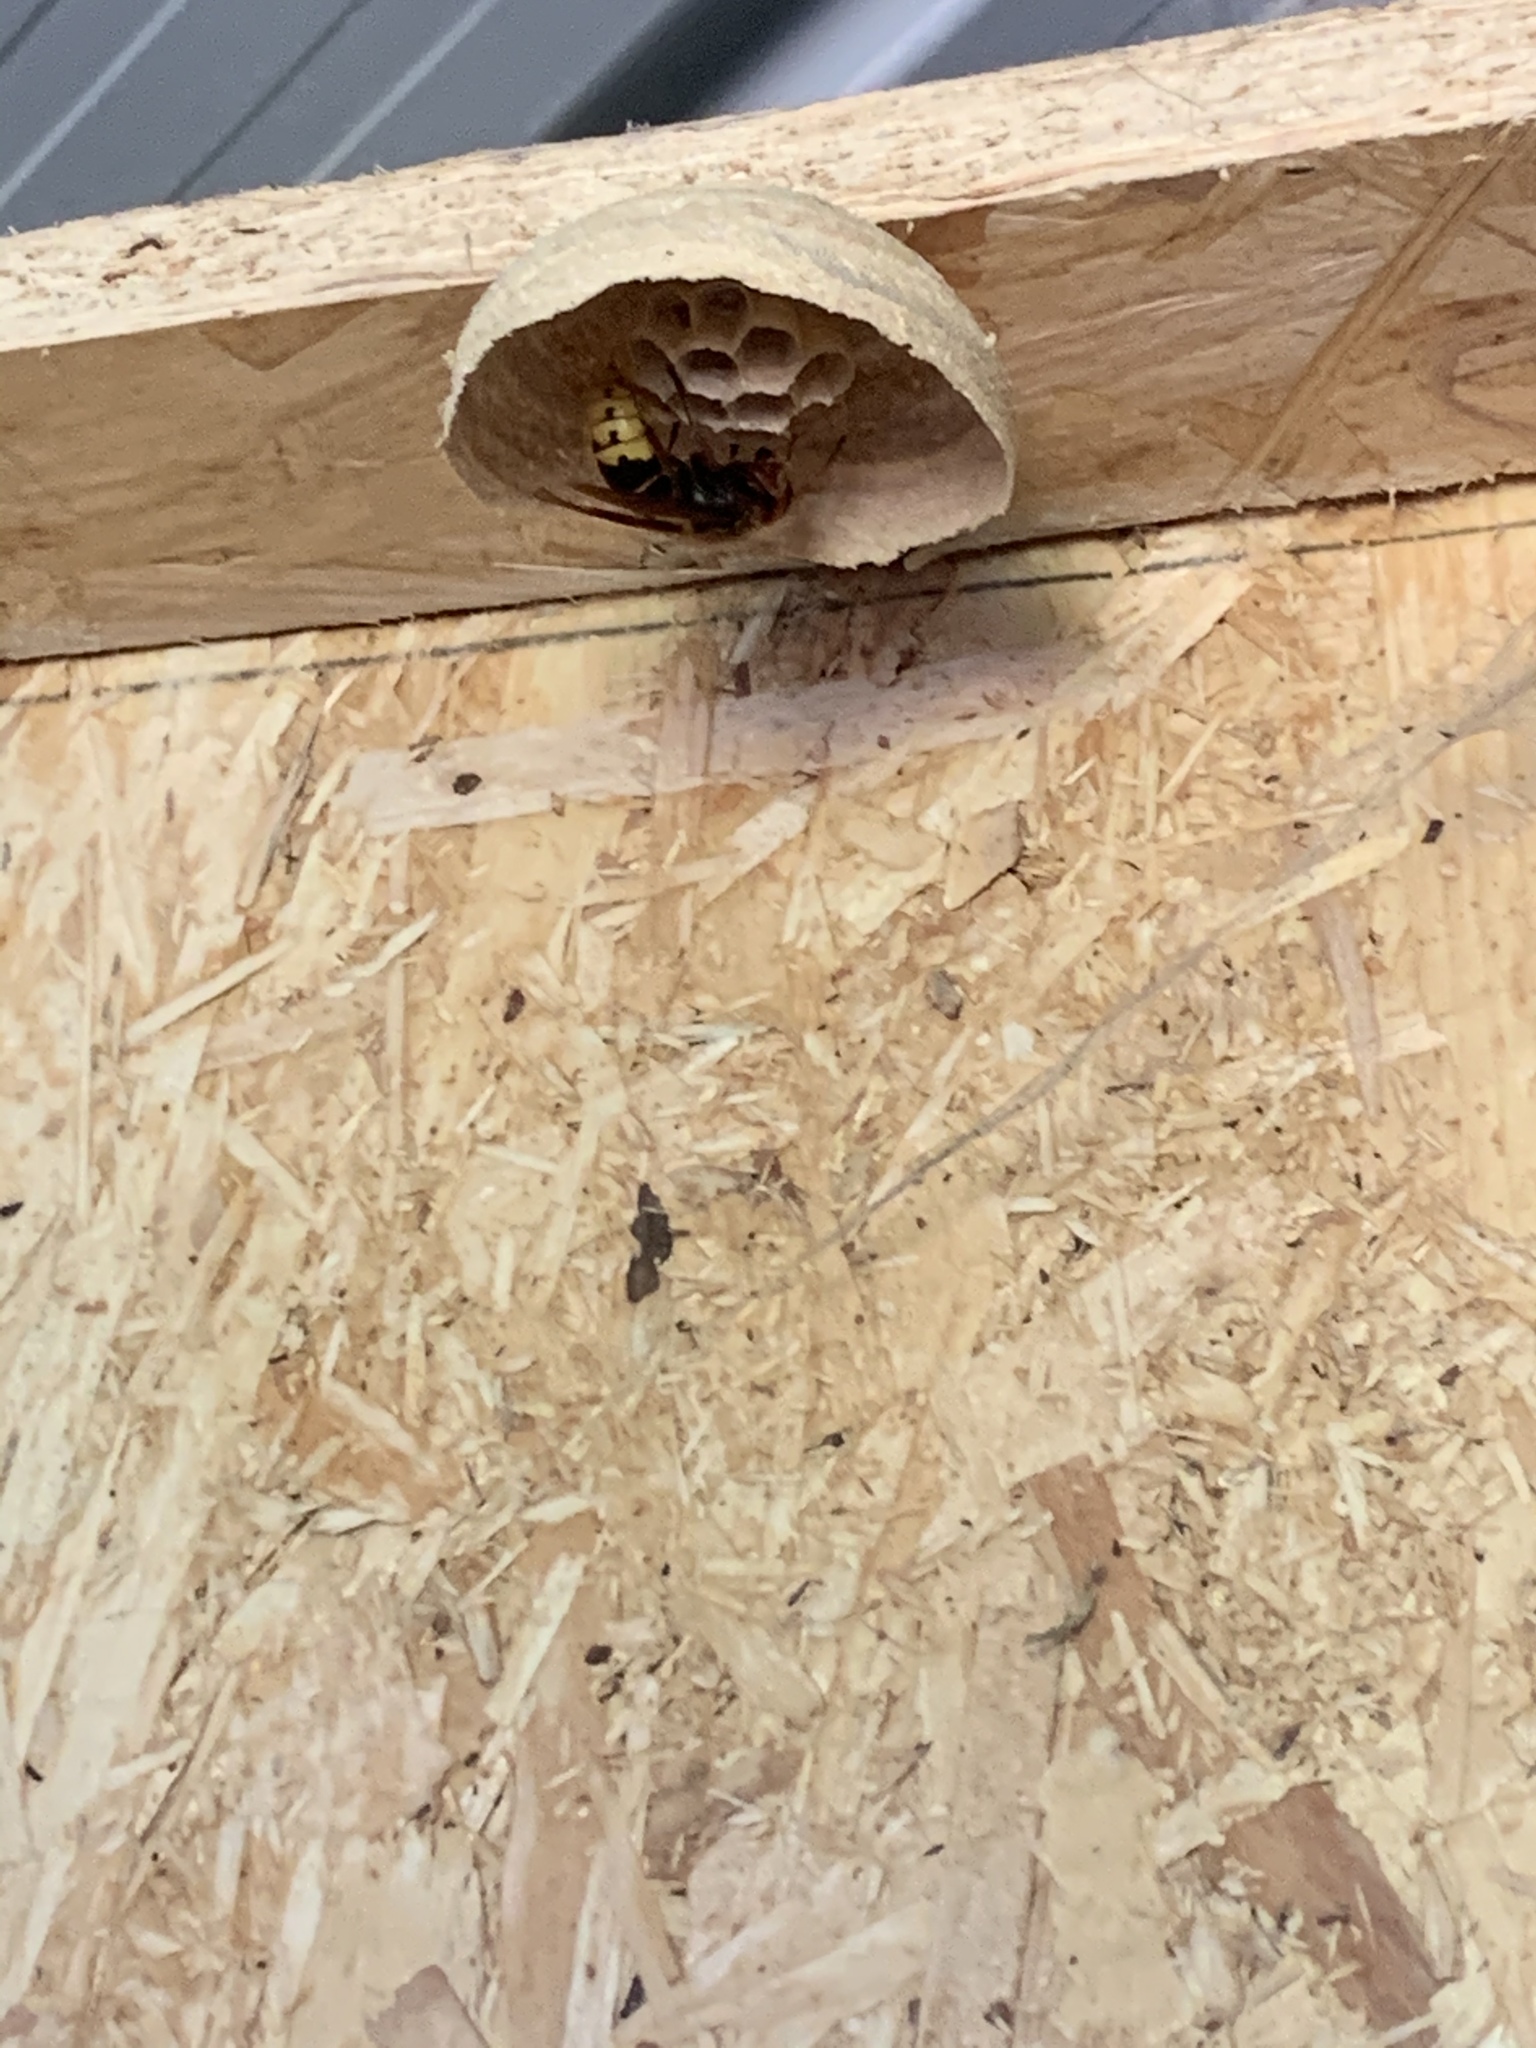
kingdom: Animalia
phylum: Arthropoda
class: Insecta
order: Hymenoptera
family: Vespidae
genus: Vespa
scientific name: Vespa crabro
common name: Hornet
